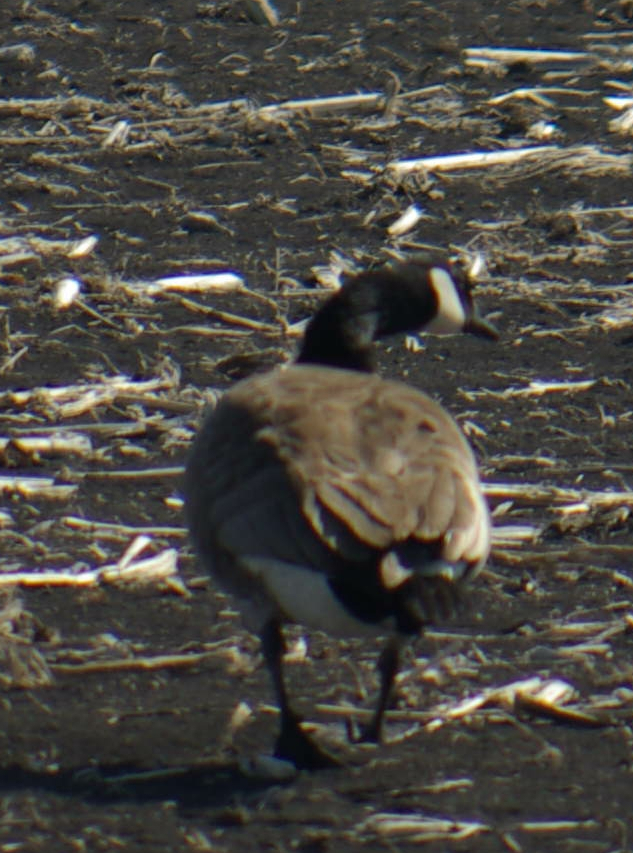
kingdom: Animalia
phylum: Chordata
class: Aves
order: Anseriformes
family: Anatidae
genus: Branta
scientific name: Branta canadensis
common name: Canada goose
